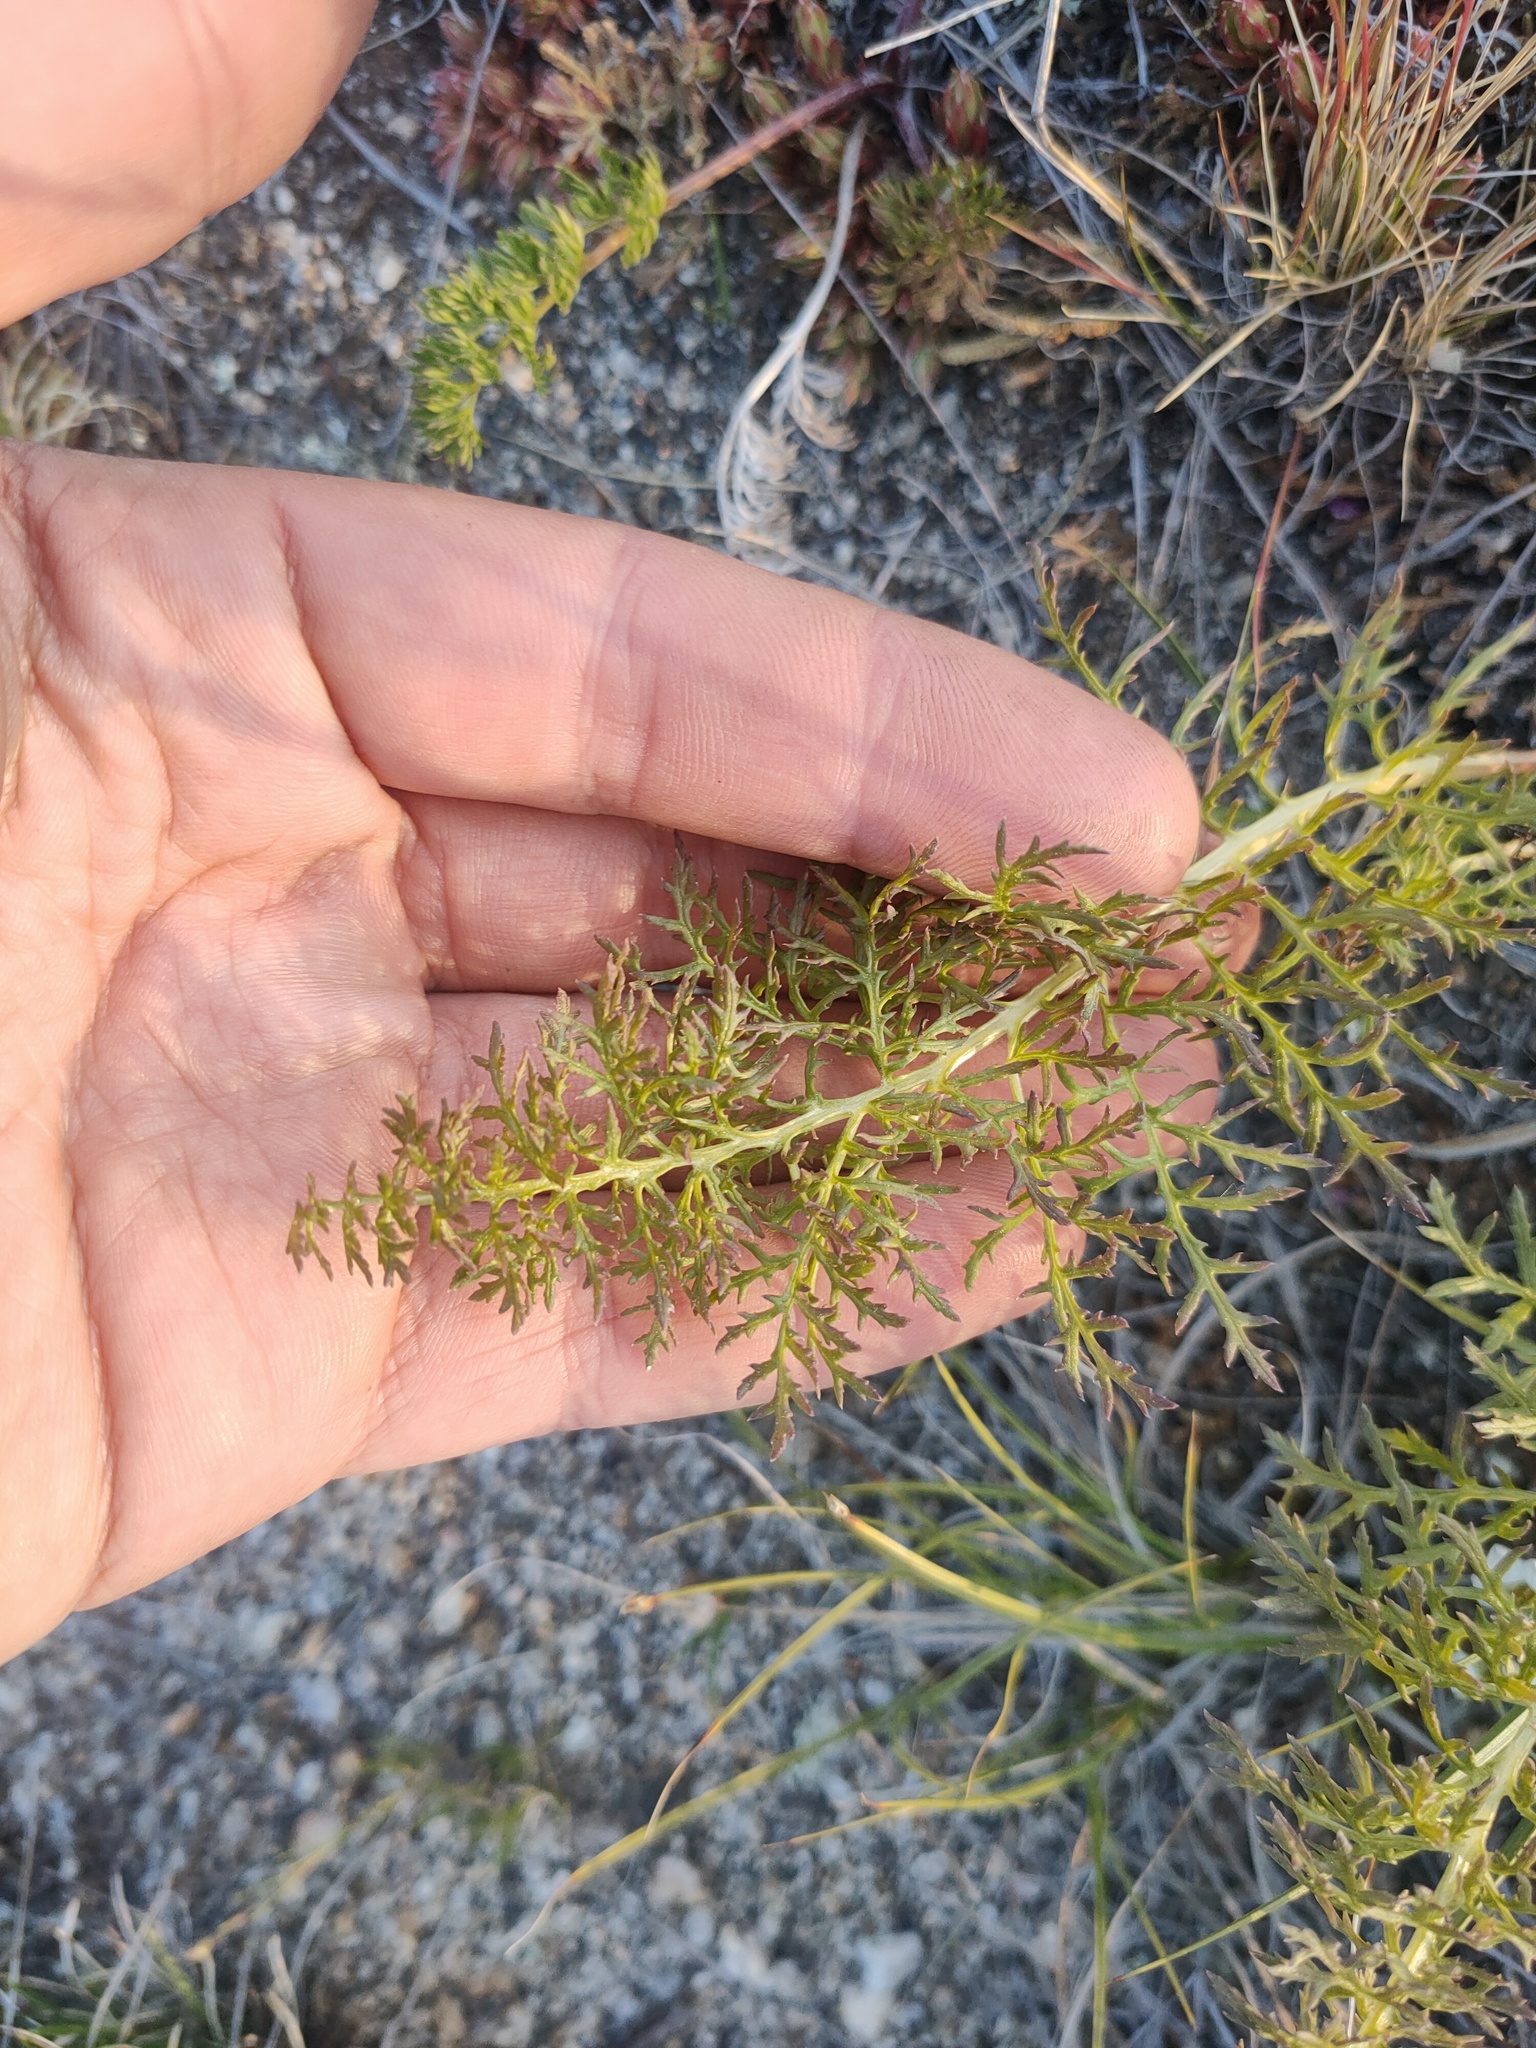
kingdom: Plantae
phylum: Tracheophyta
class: Magnoliopsida
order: Lamiales
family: Orobanchaceae
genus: Pedicularis
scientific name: Pedicularis rubens
